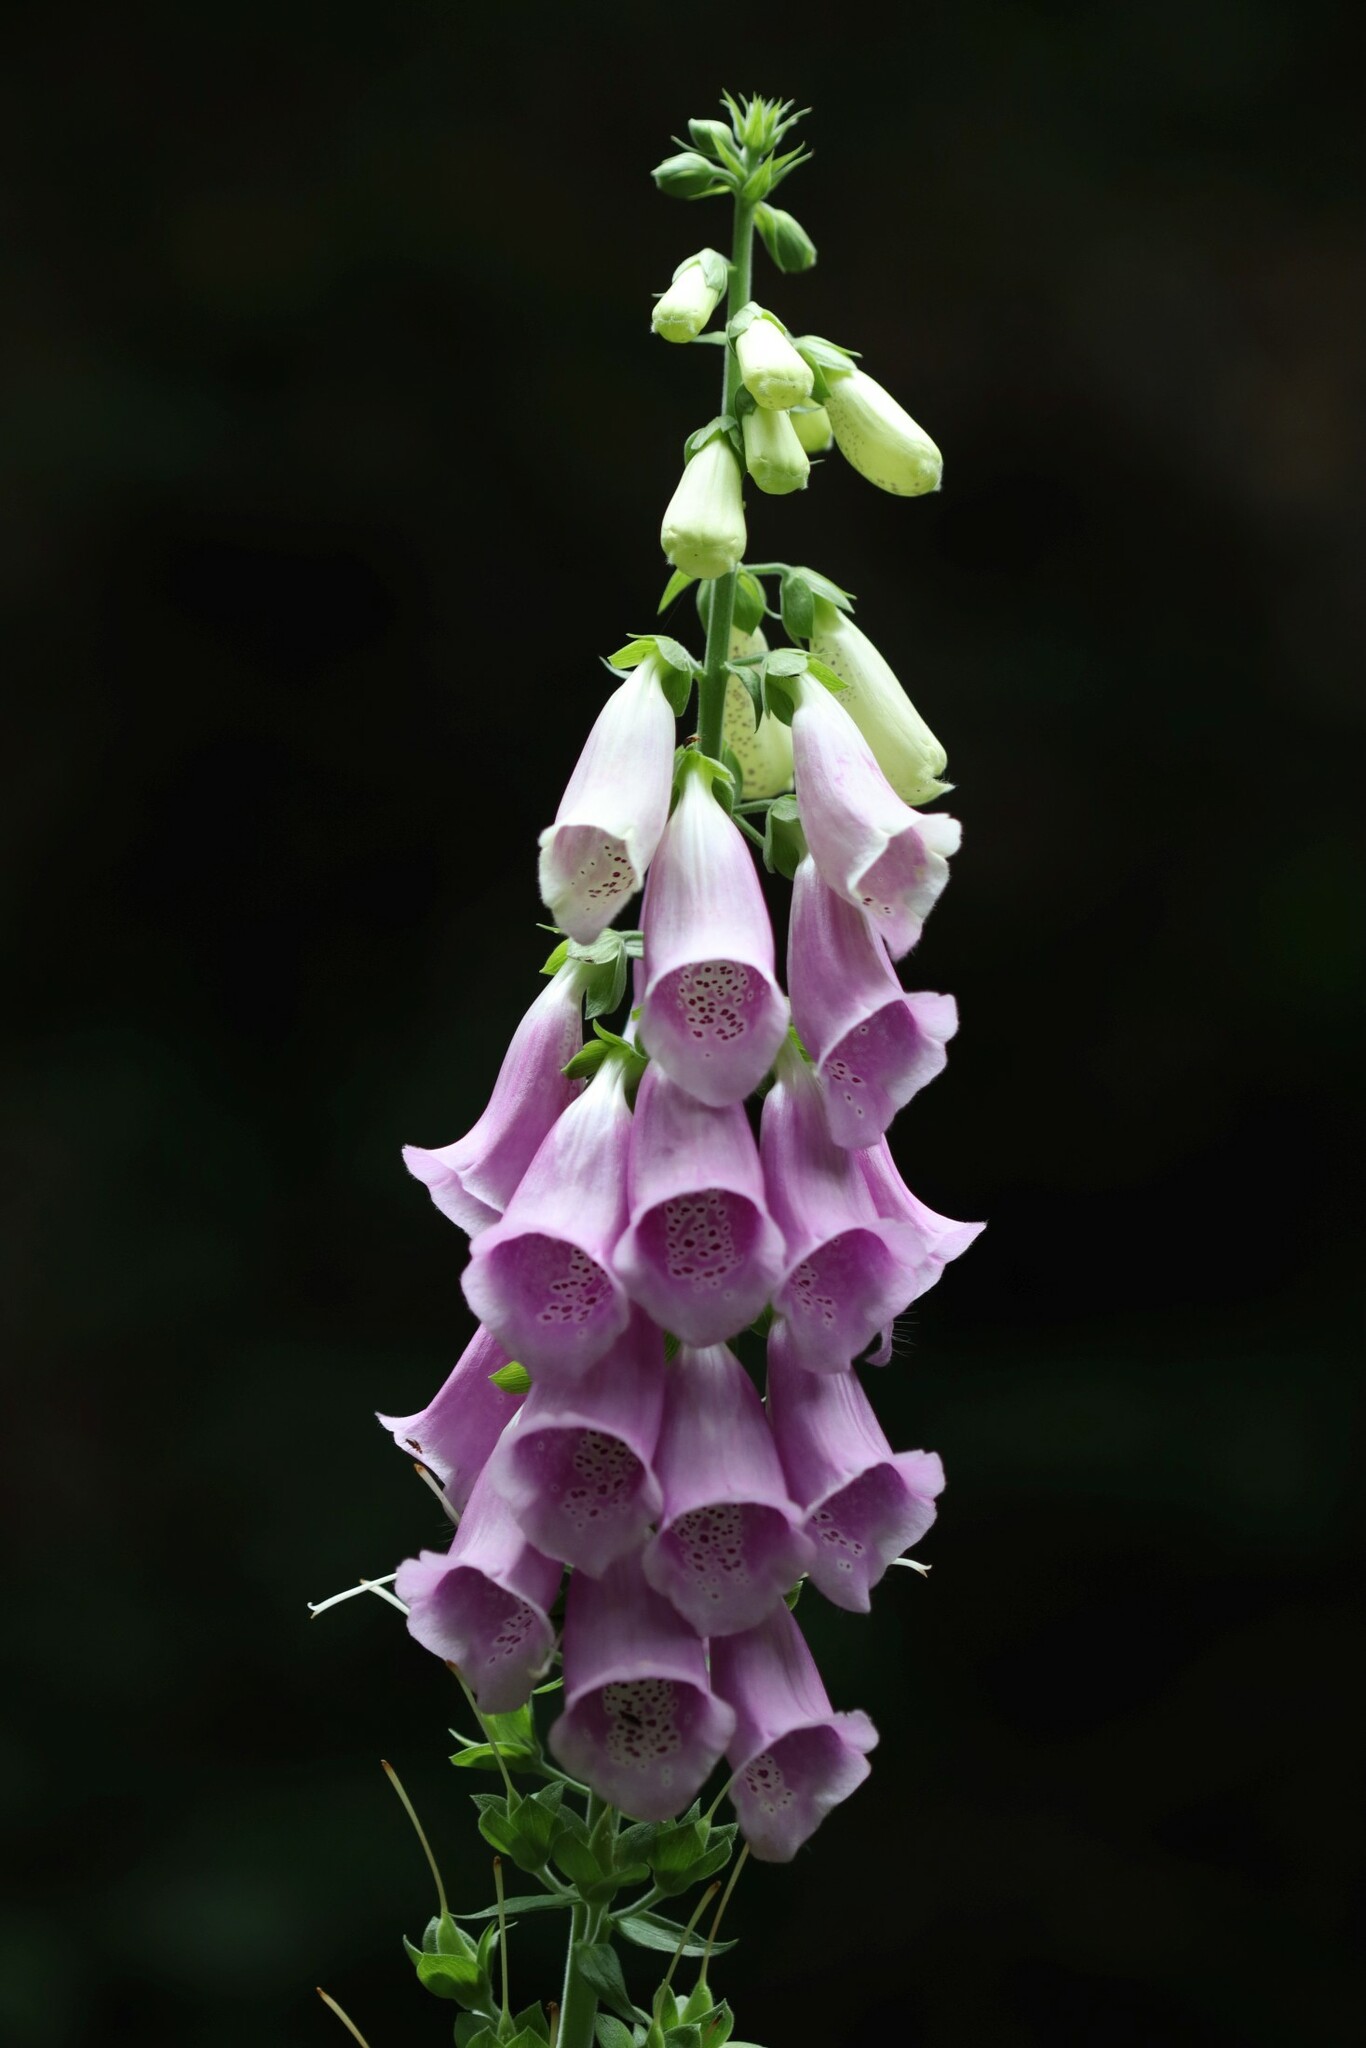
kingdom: Plantae
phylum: Tracheophyta
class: Magnoliopsida
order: Lamiales
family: Plantaginaceae
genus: Digitalis
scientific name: Digitalis purpurea
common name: Foxglove
